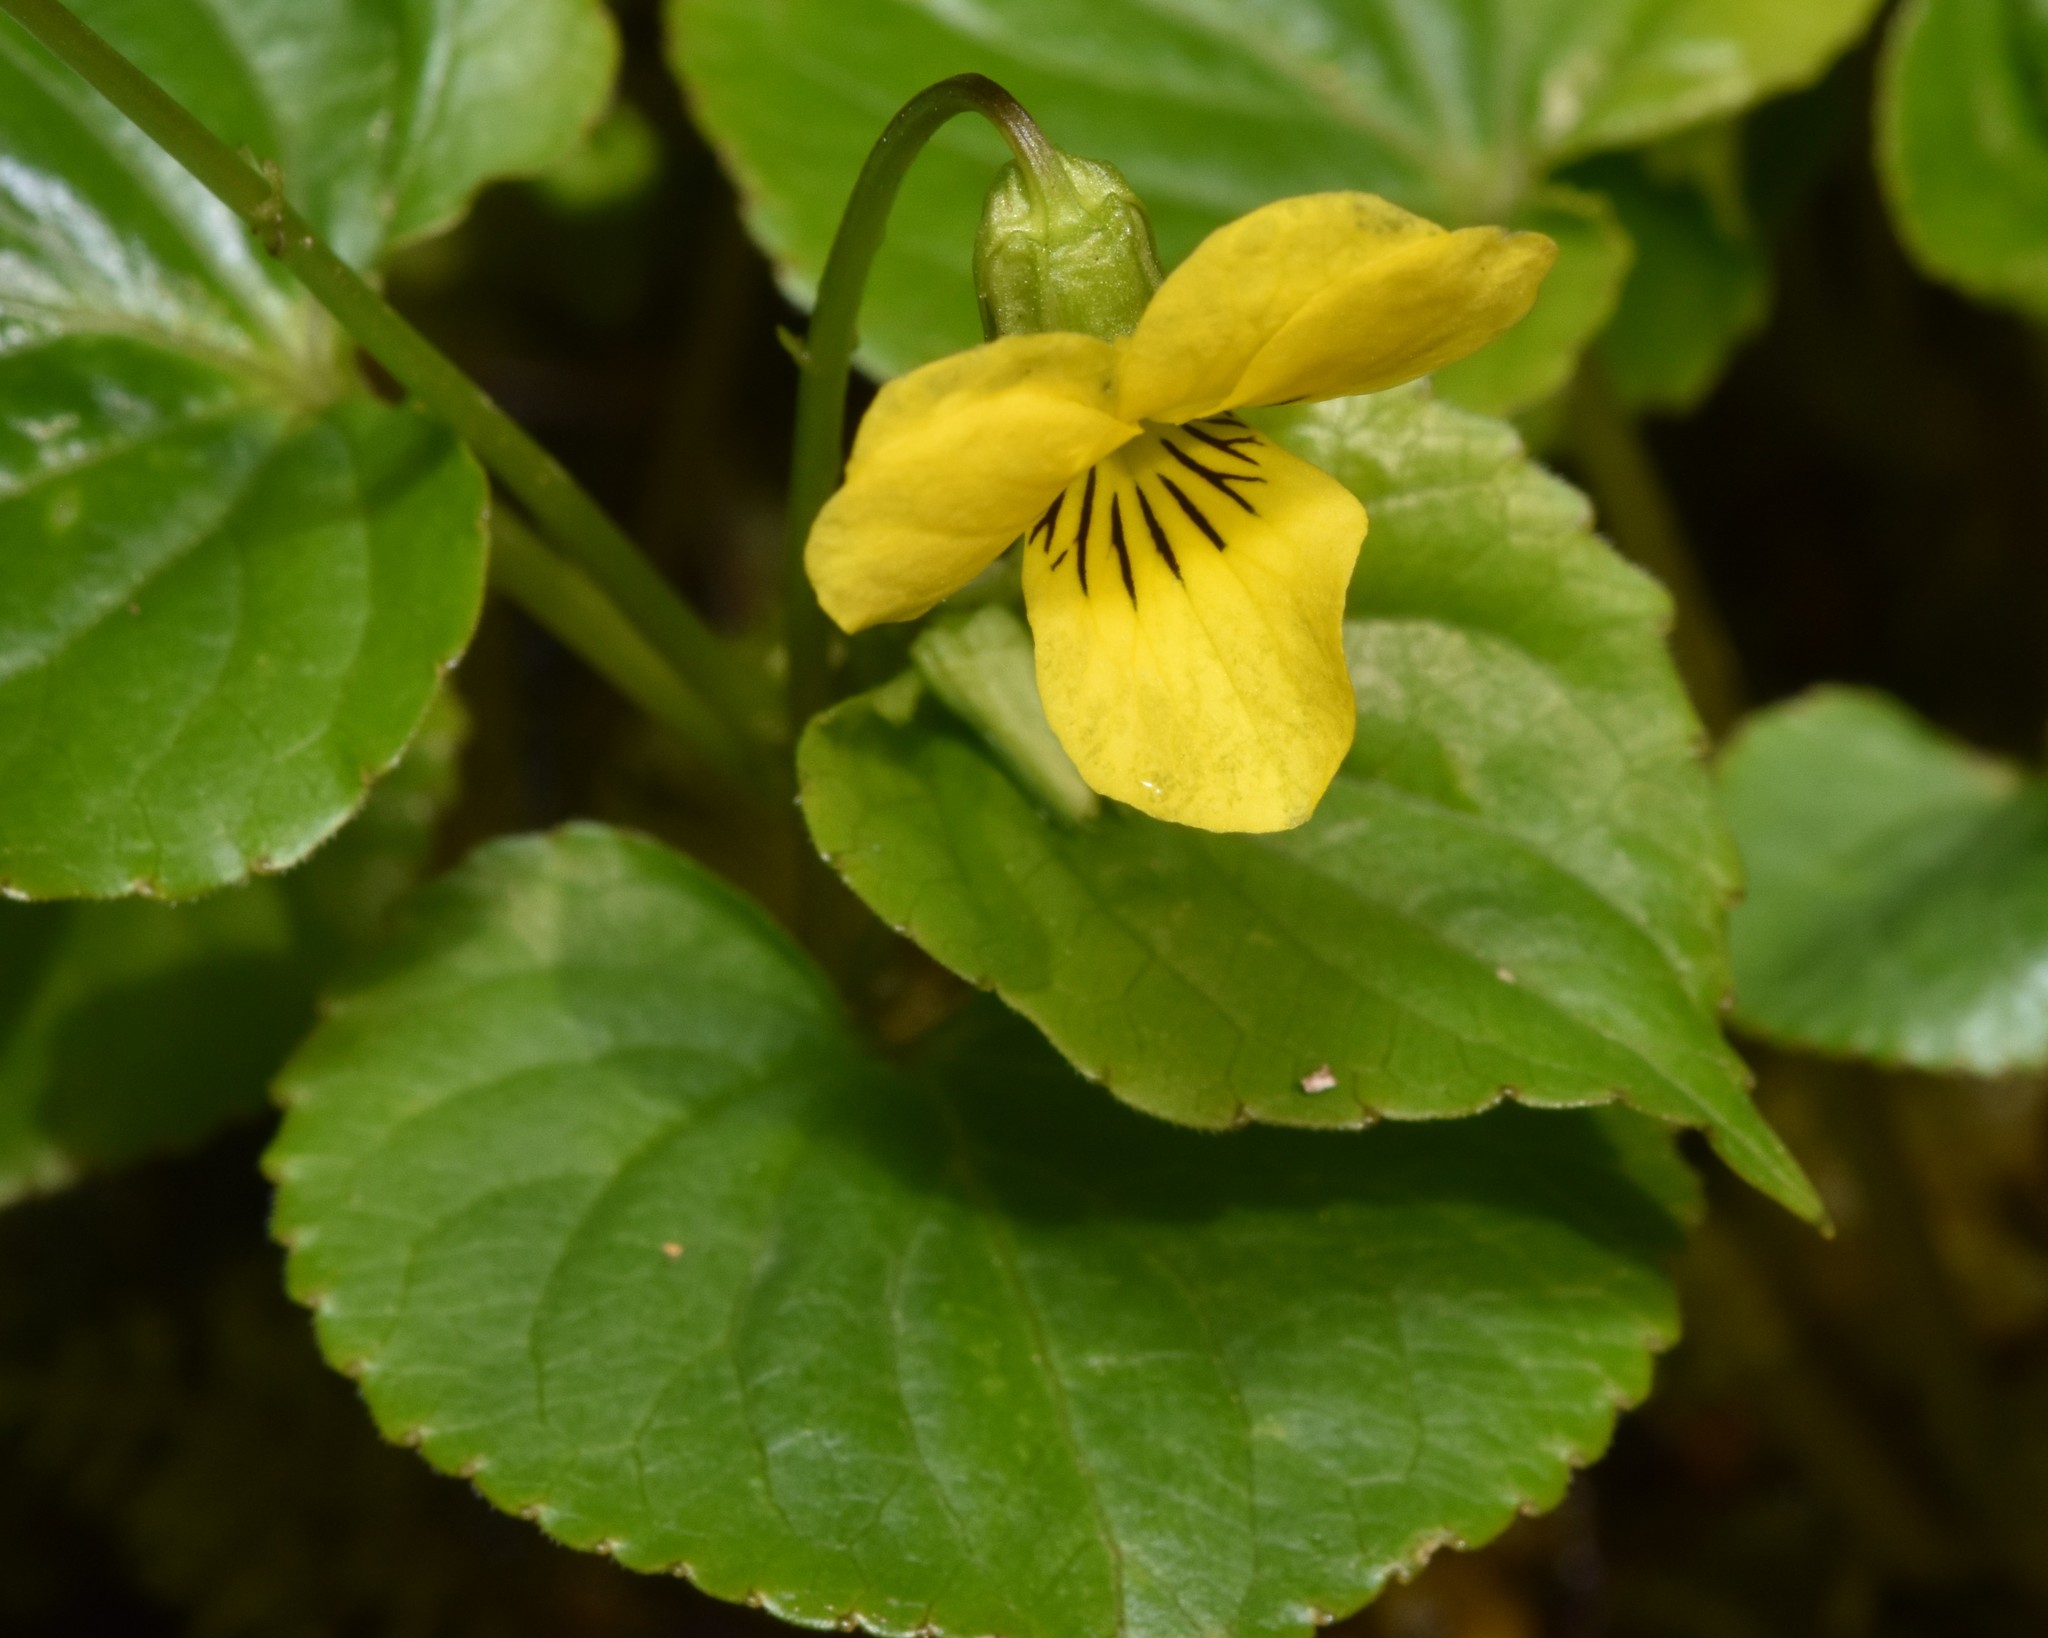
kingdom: Plantae
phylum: Tracheophyta
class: Magnoliopsida
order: Malpighiales
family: Violaceae
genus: Viola
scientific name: Viola glabella
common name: Stream violet
